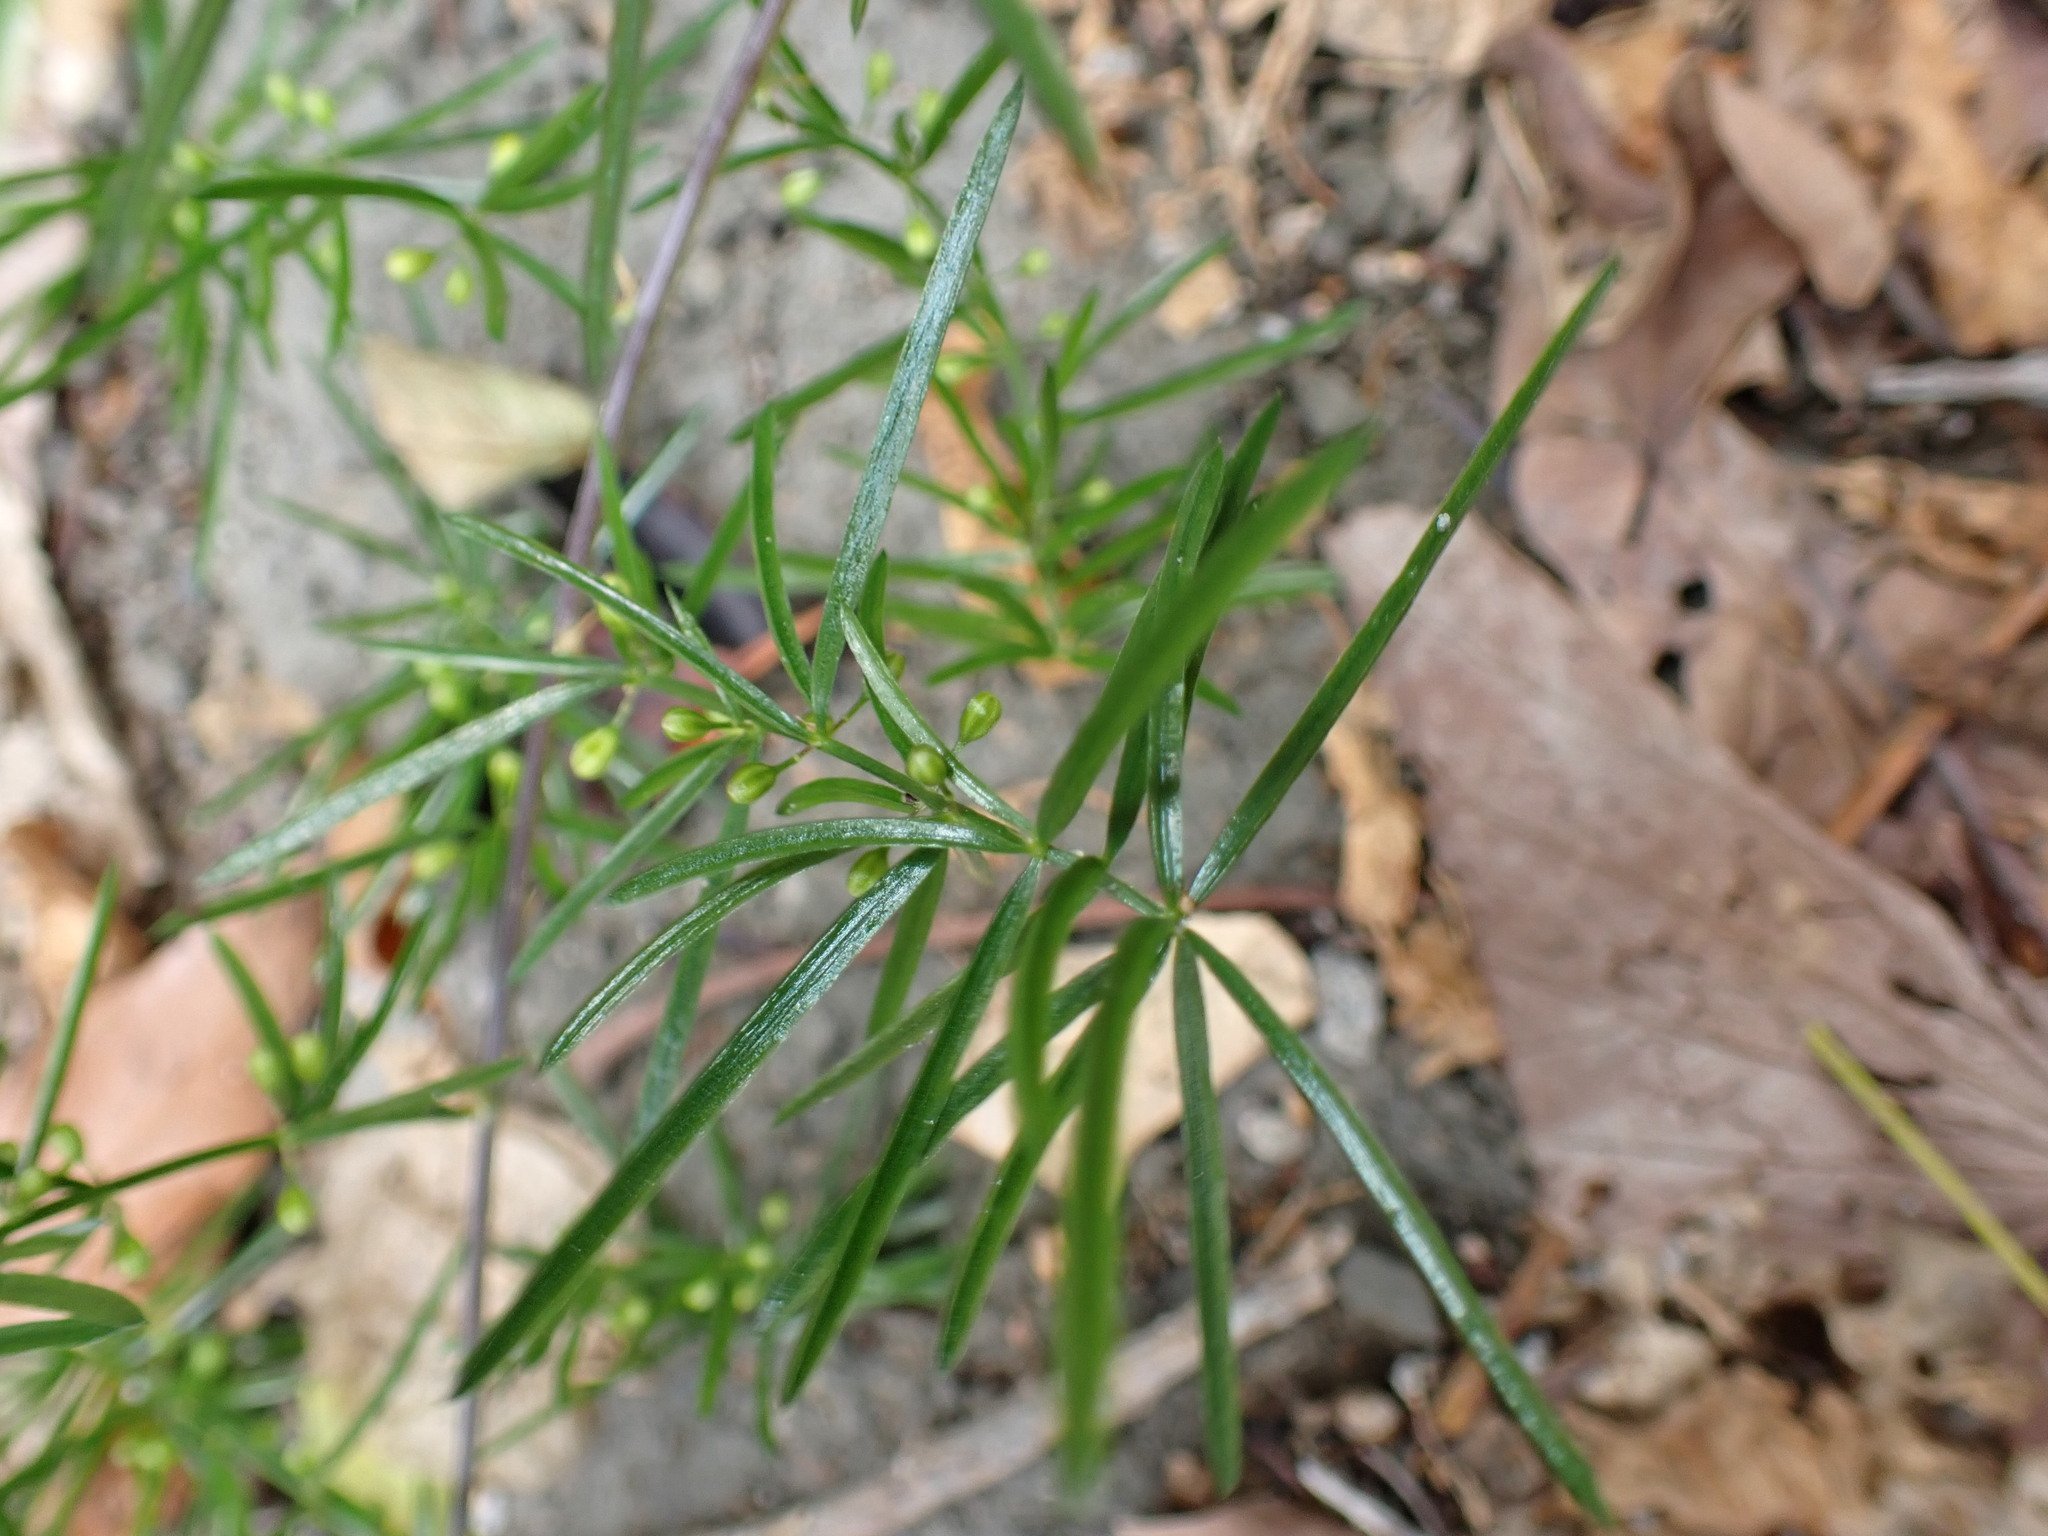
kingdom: Plantae
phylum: Tracheophyta
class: Liliopsida
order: Asparagales
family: Asparagaceae
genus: Asparagus
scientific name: Asparagus cochinchinensis
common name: Chinese asparagus
